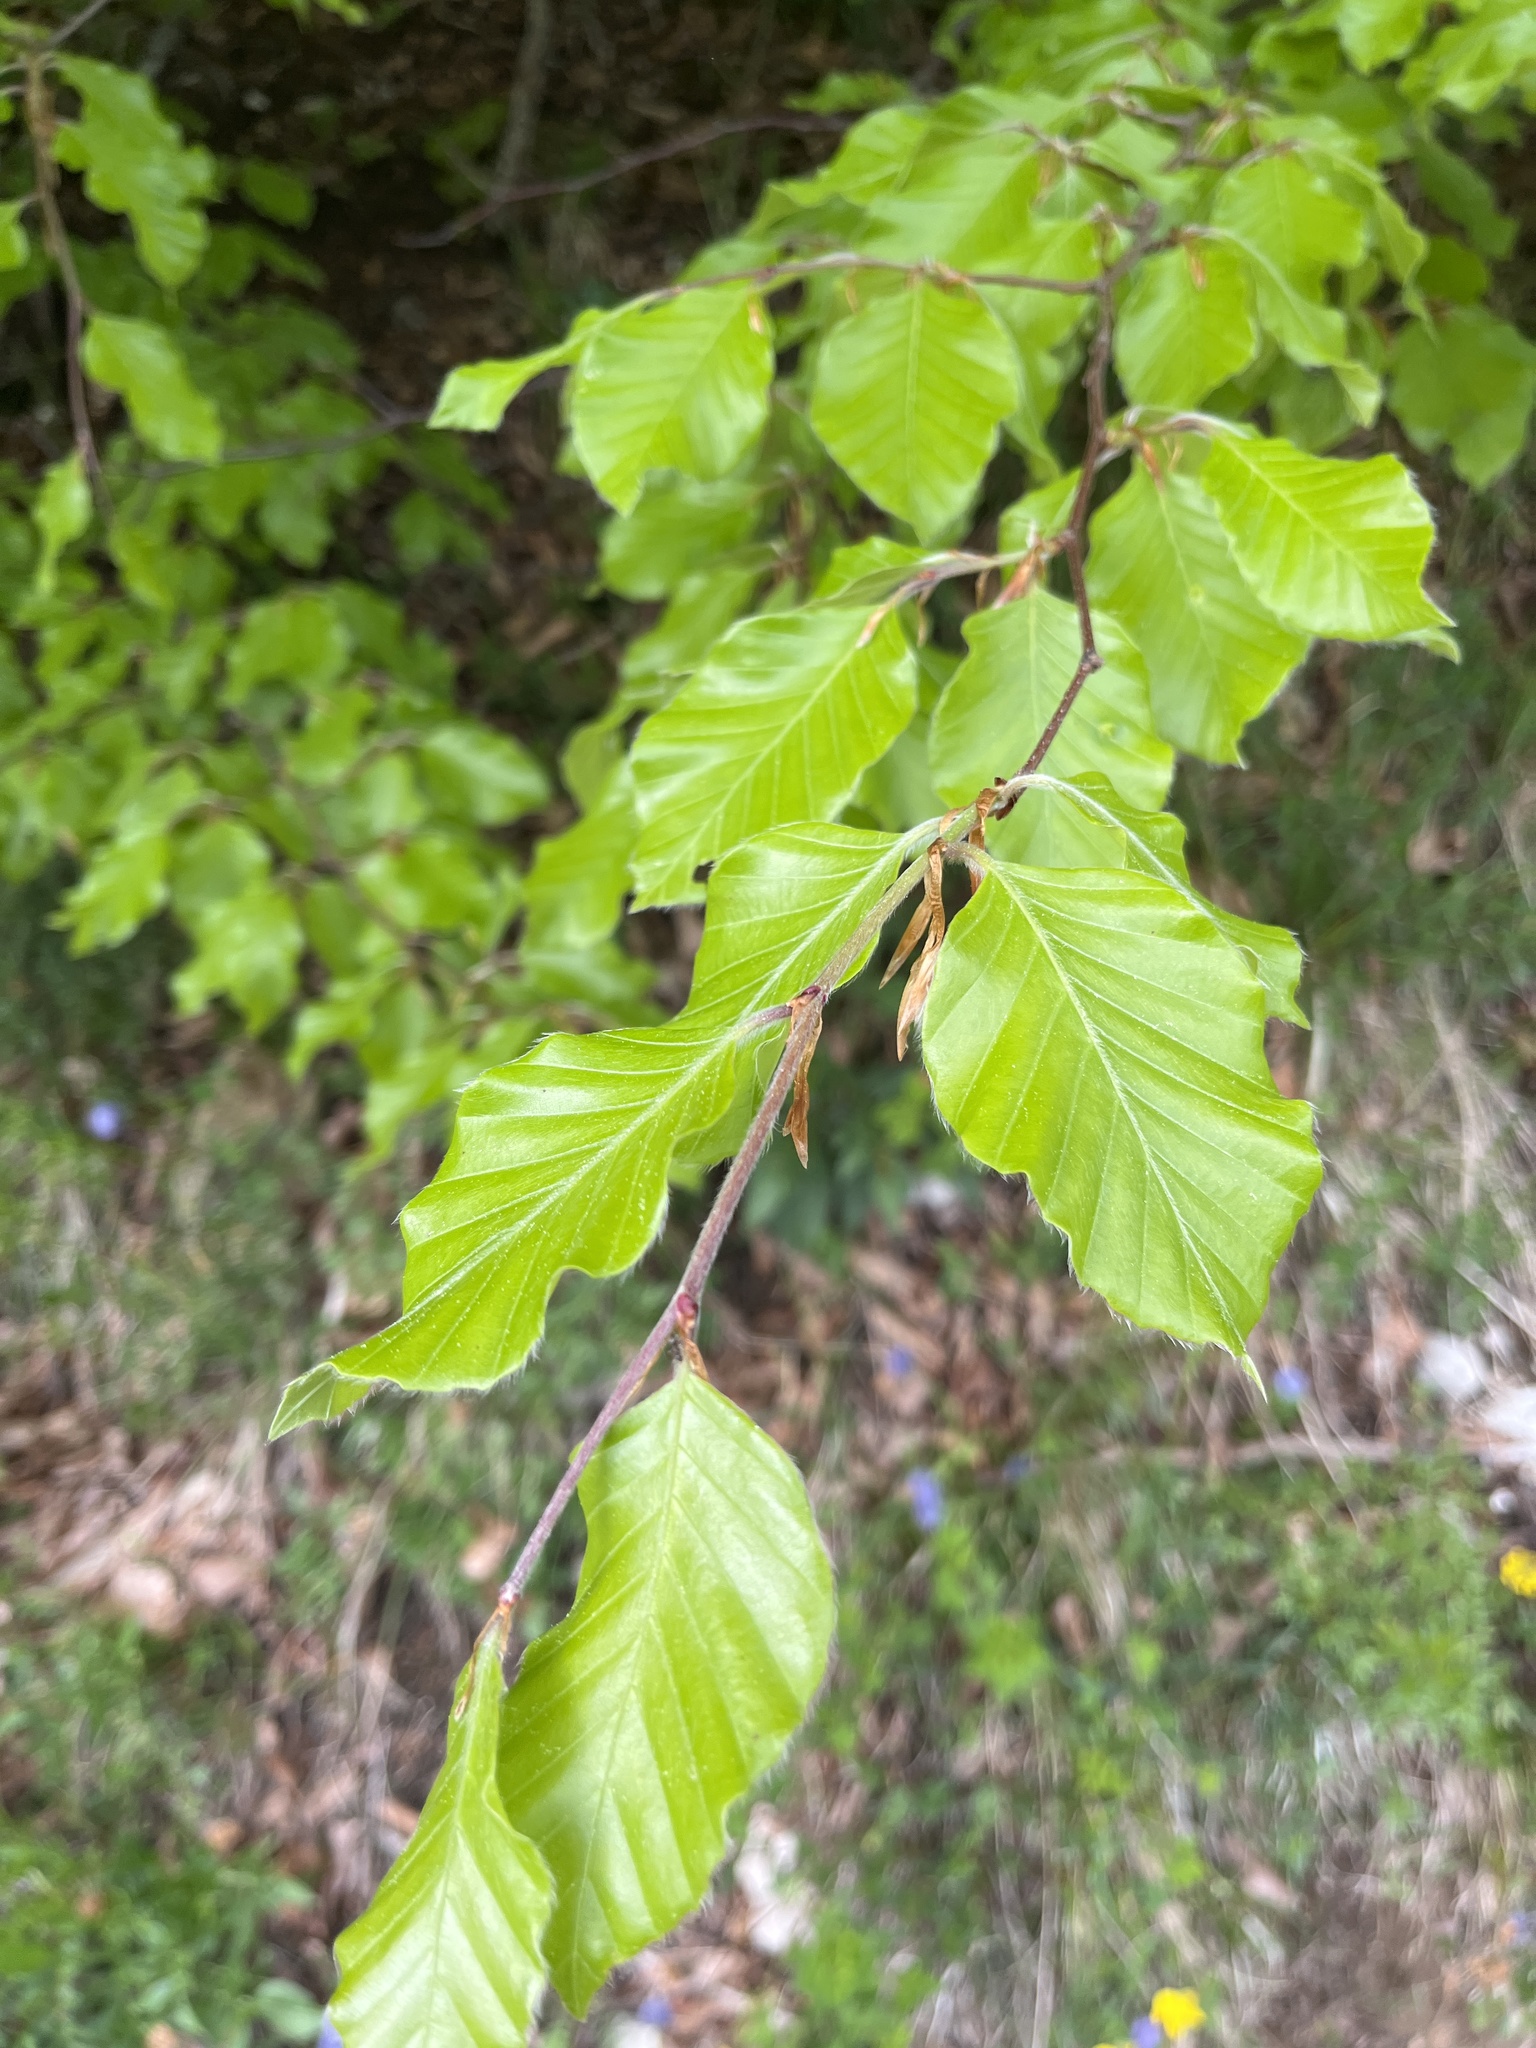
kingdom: Plantae
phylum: Tracheophyta
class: Magnoliopsida
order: Fagales
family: Fagaceae
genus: Fagus
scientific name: Fagus sylvatica
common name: Beech
